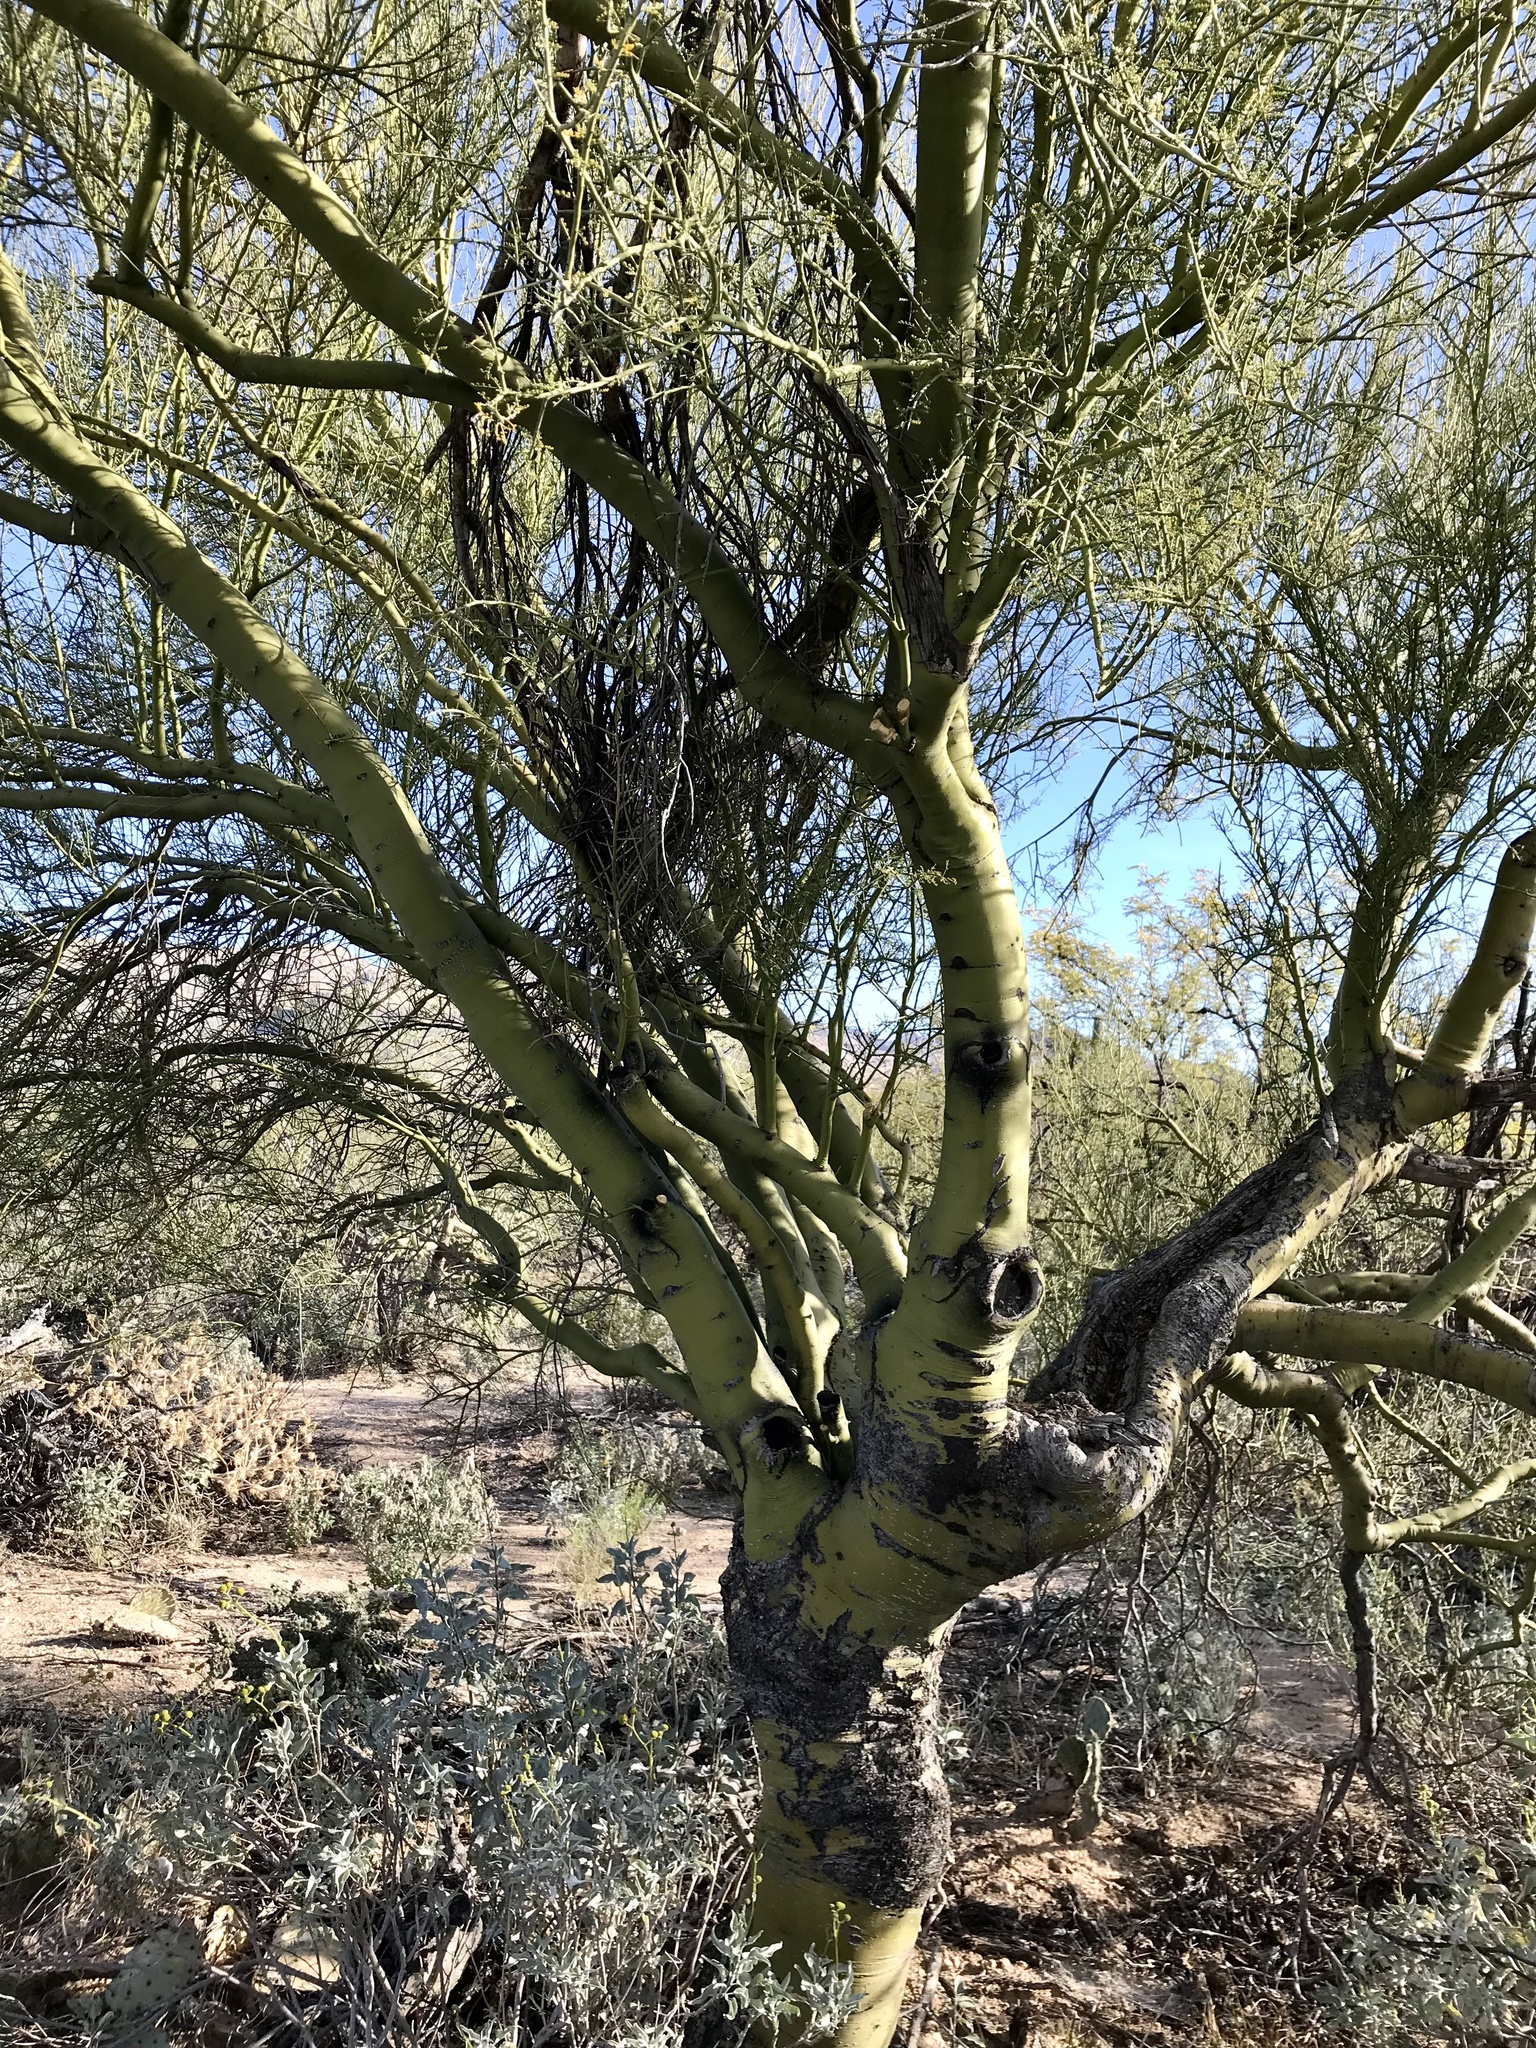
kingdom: Plantae
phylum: Tracheophyta
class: Magnoliopsida
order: Fabales
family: Fabaceae
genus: Parkinsonia
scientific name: Parkinsonia microphylla
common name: Yellow paloverde
